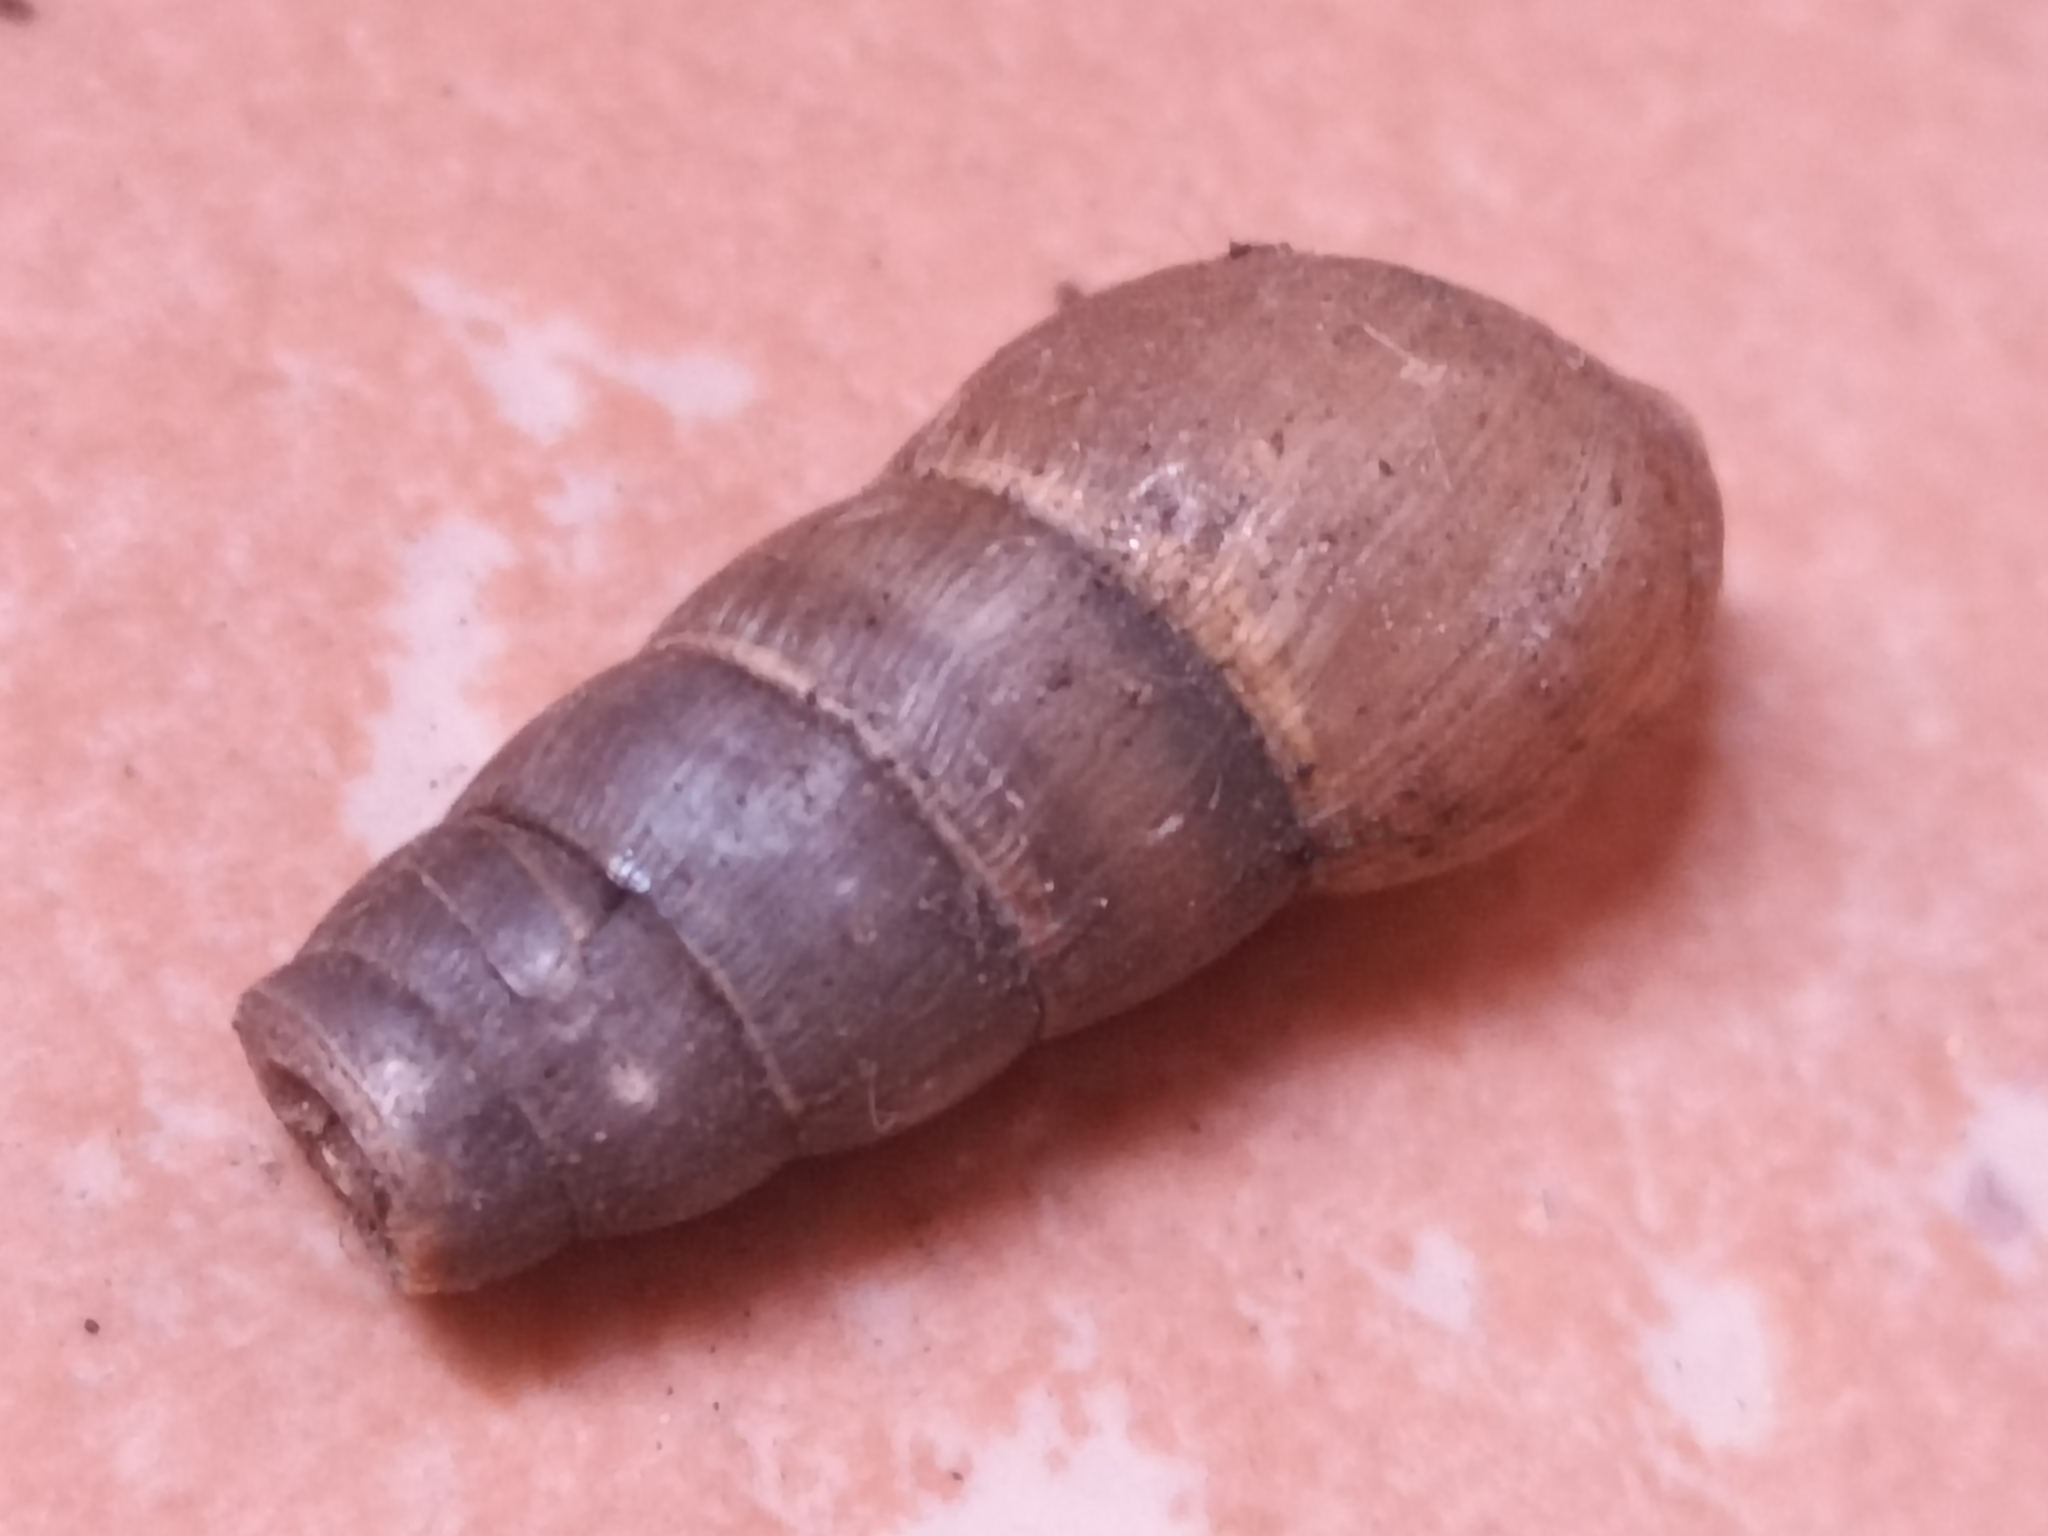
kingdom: Animalia
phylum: Mollusca
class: Gastropoda
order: Stylommatophora
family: Achatinidae
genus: Rumina
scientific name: Rumina decollata
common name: Decollate snail
